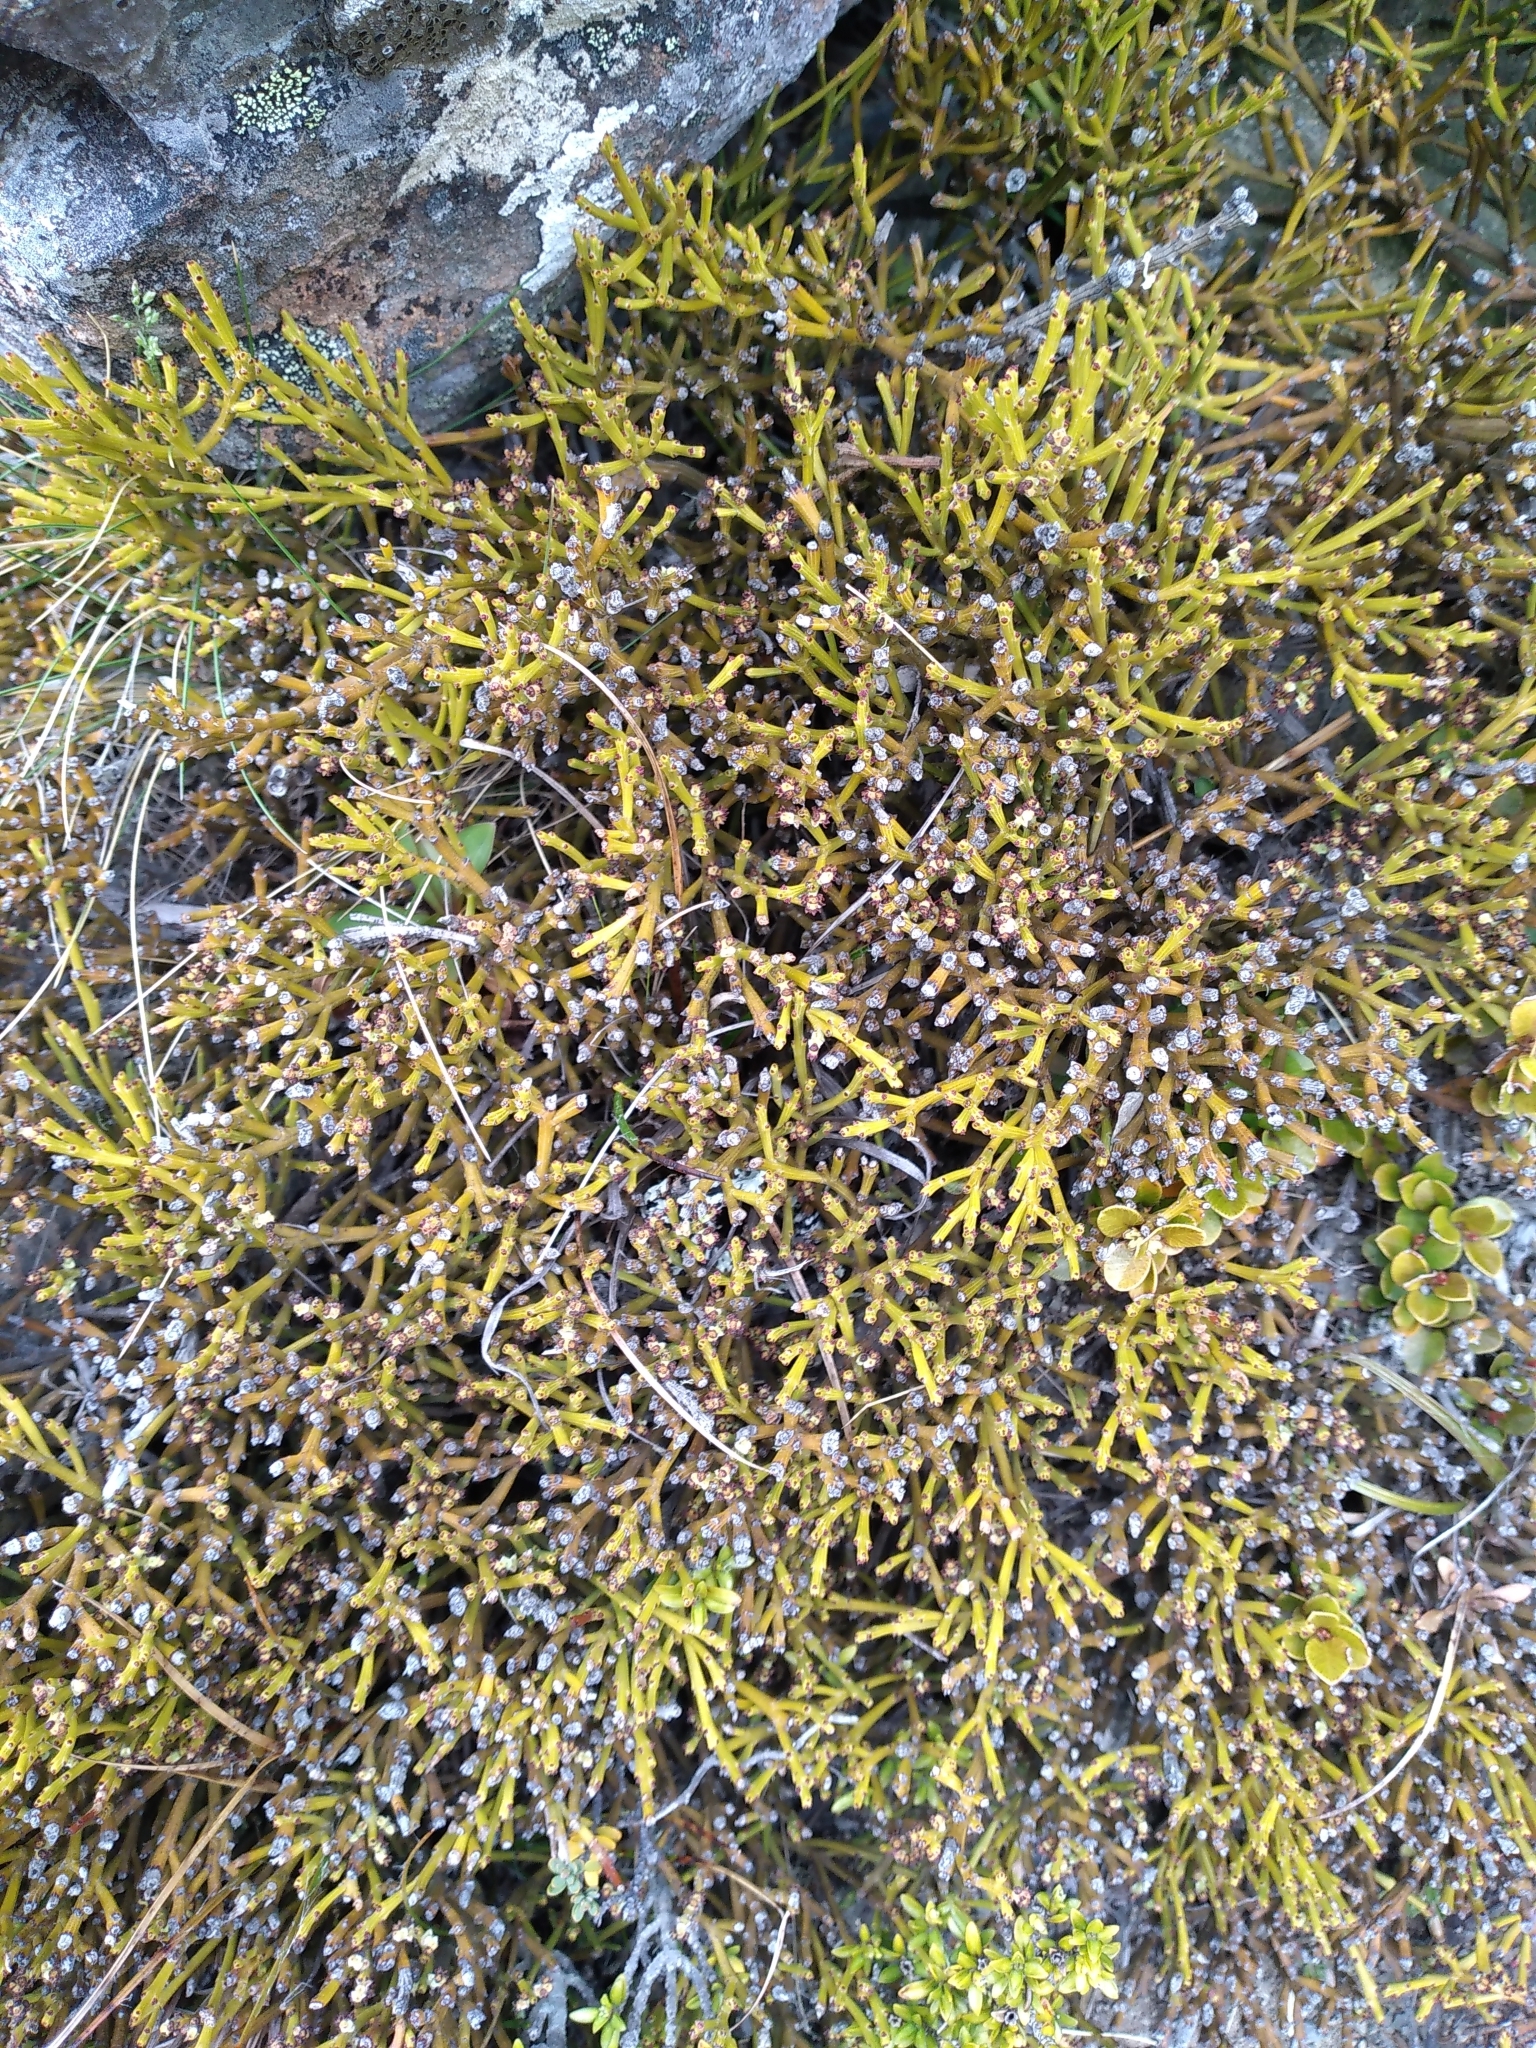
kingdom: Plantae
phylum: Tracheophyta
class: Magnoliopsida
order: Santalales
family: Santalaceae
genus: Exocarpos
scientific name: Exocarpos bidwillii
